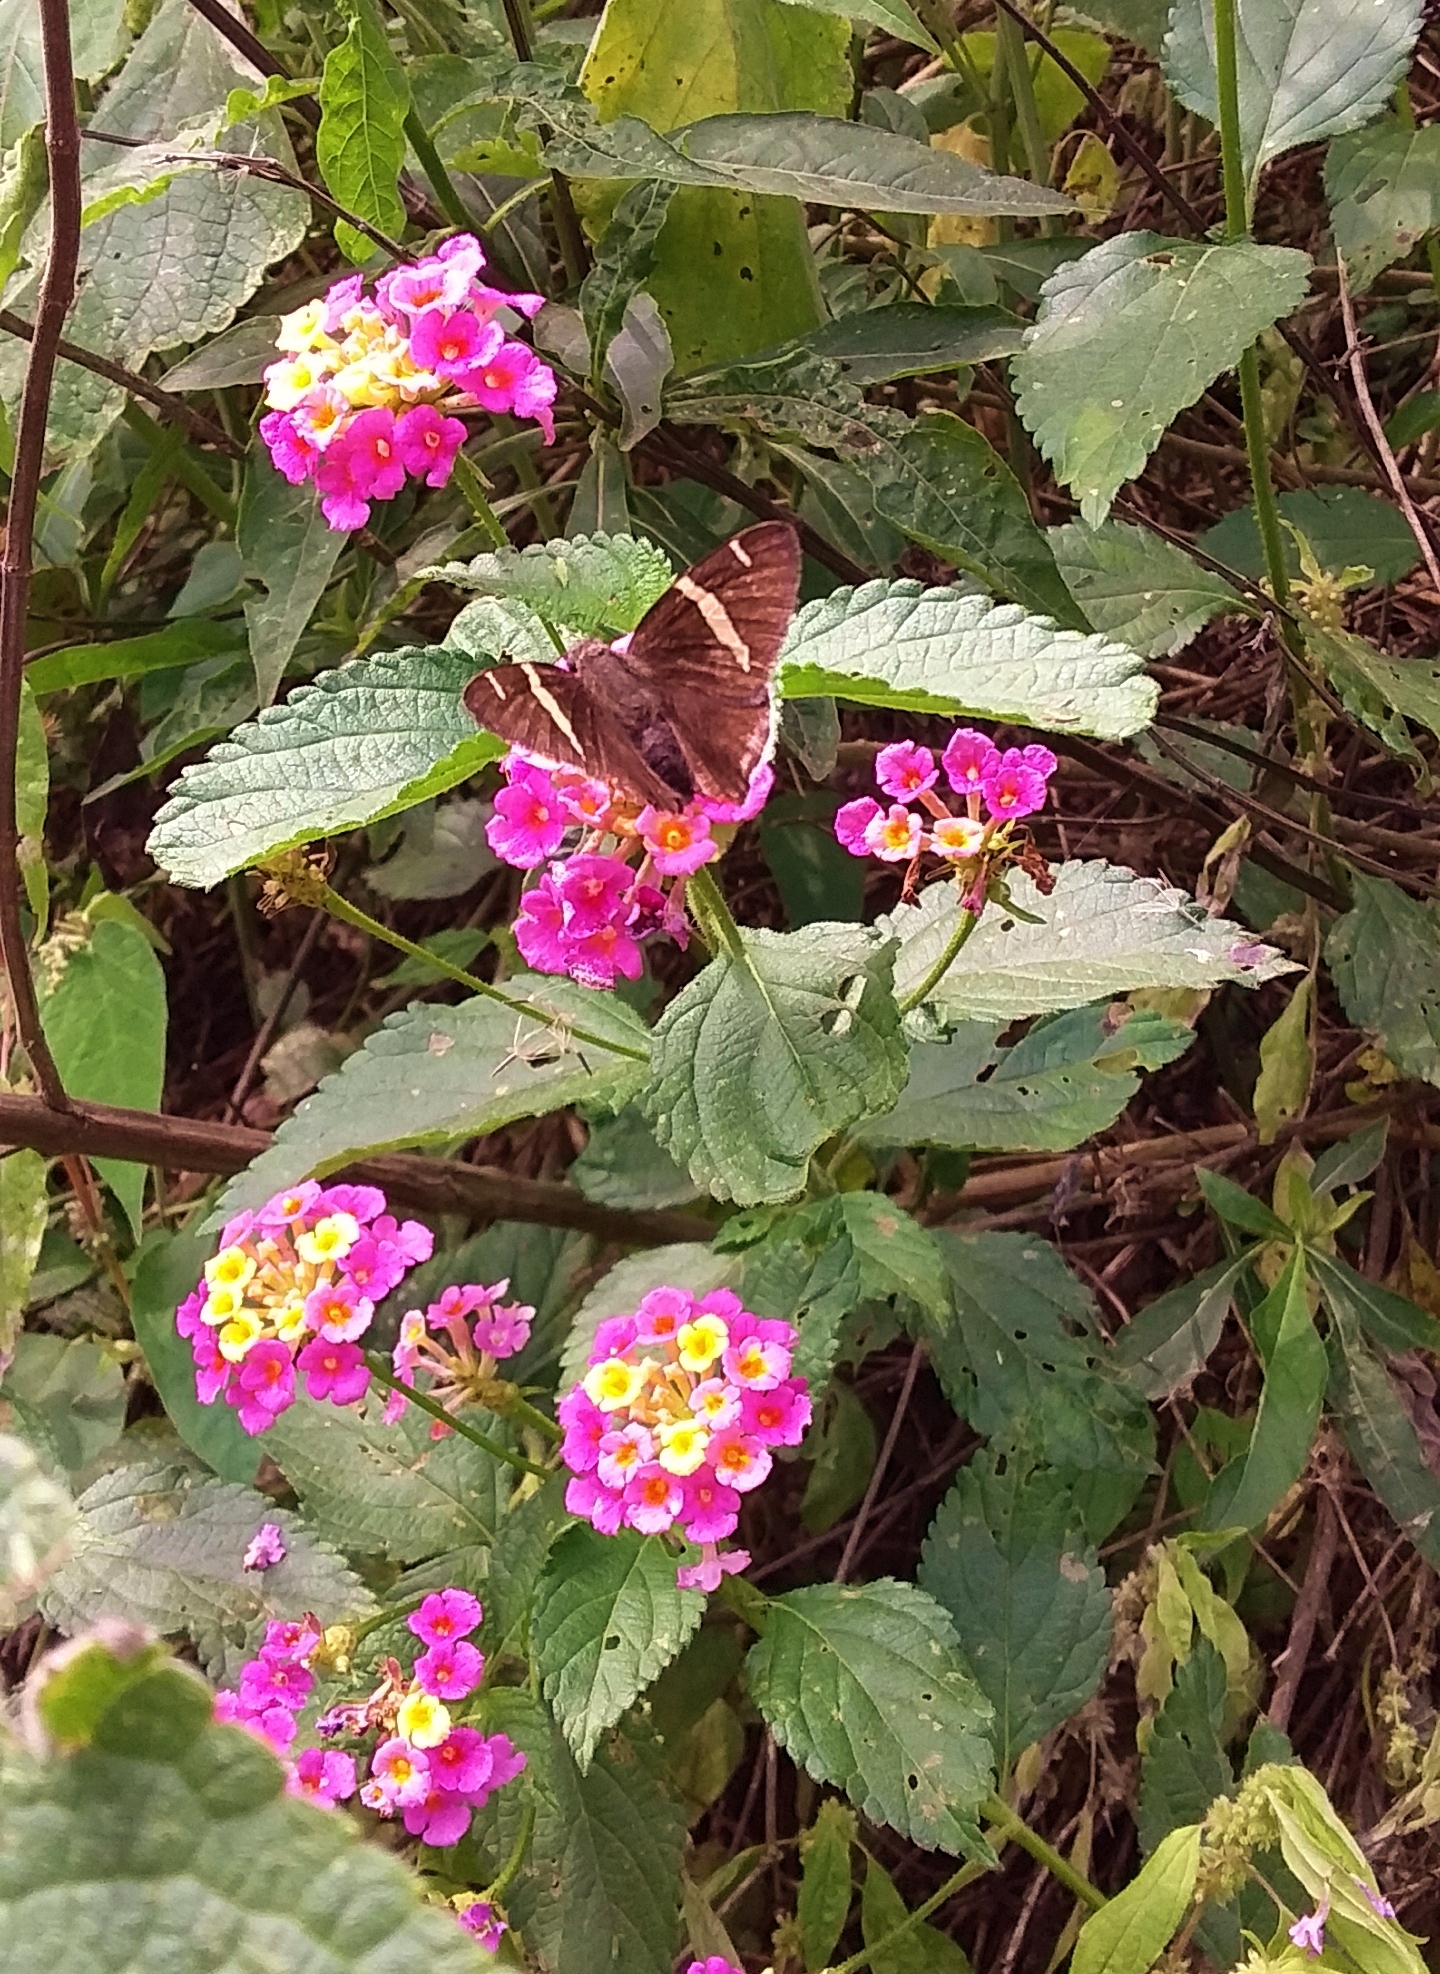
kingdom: Animalia
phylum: Arthropoda
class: Insecta
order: Lepidoptera
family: Hesperiidae
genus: Thorybes
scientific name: Thorybes cincta
